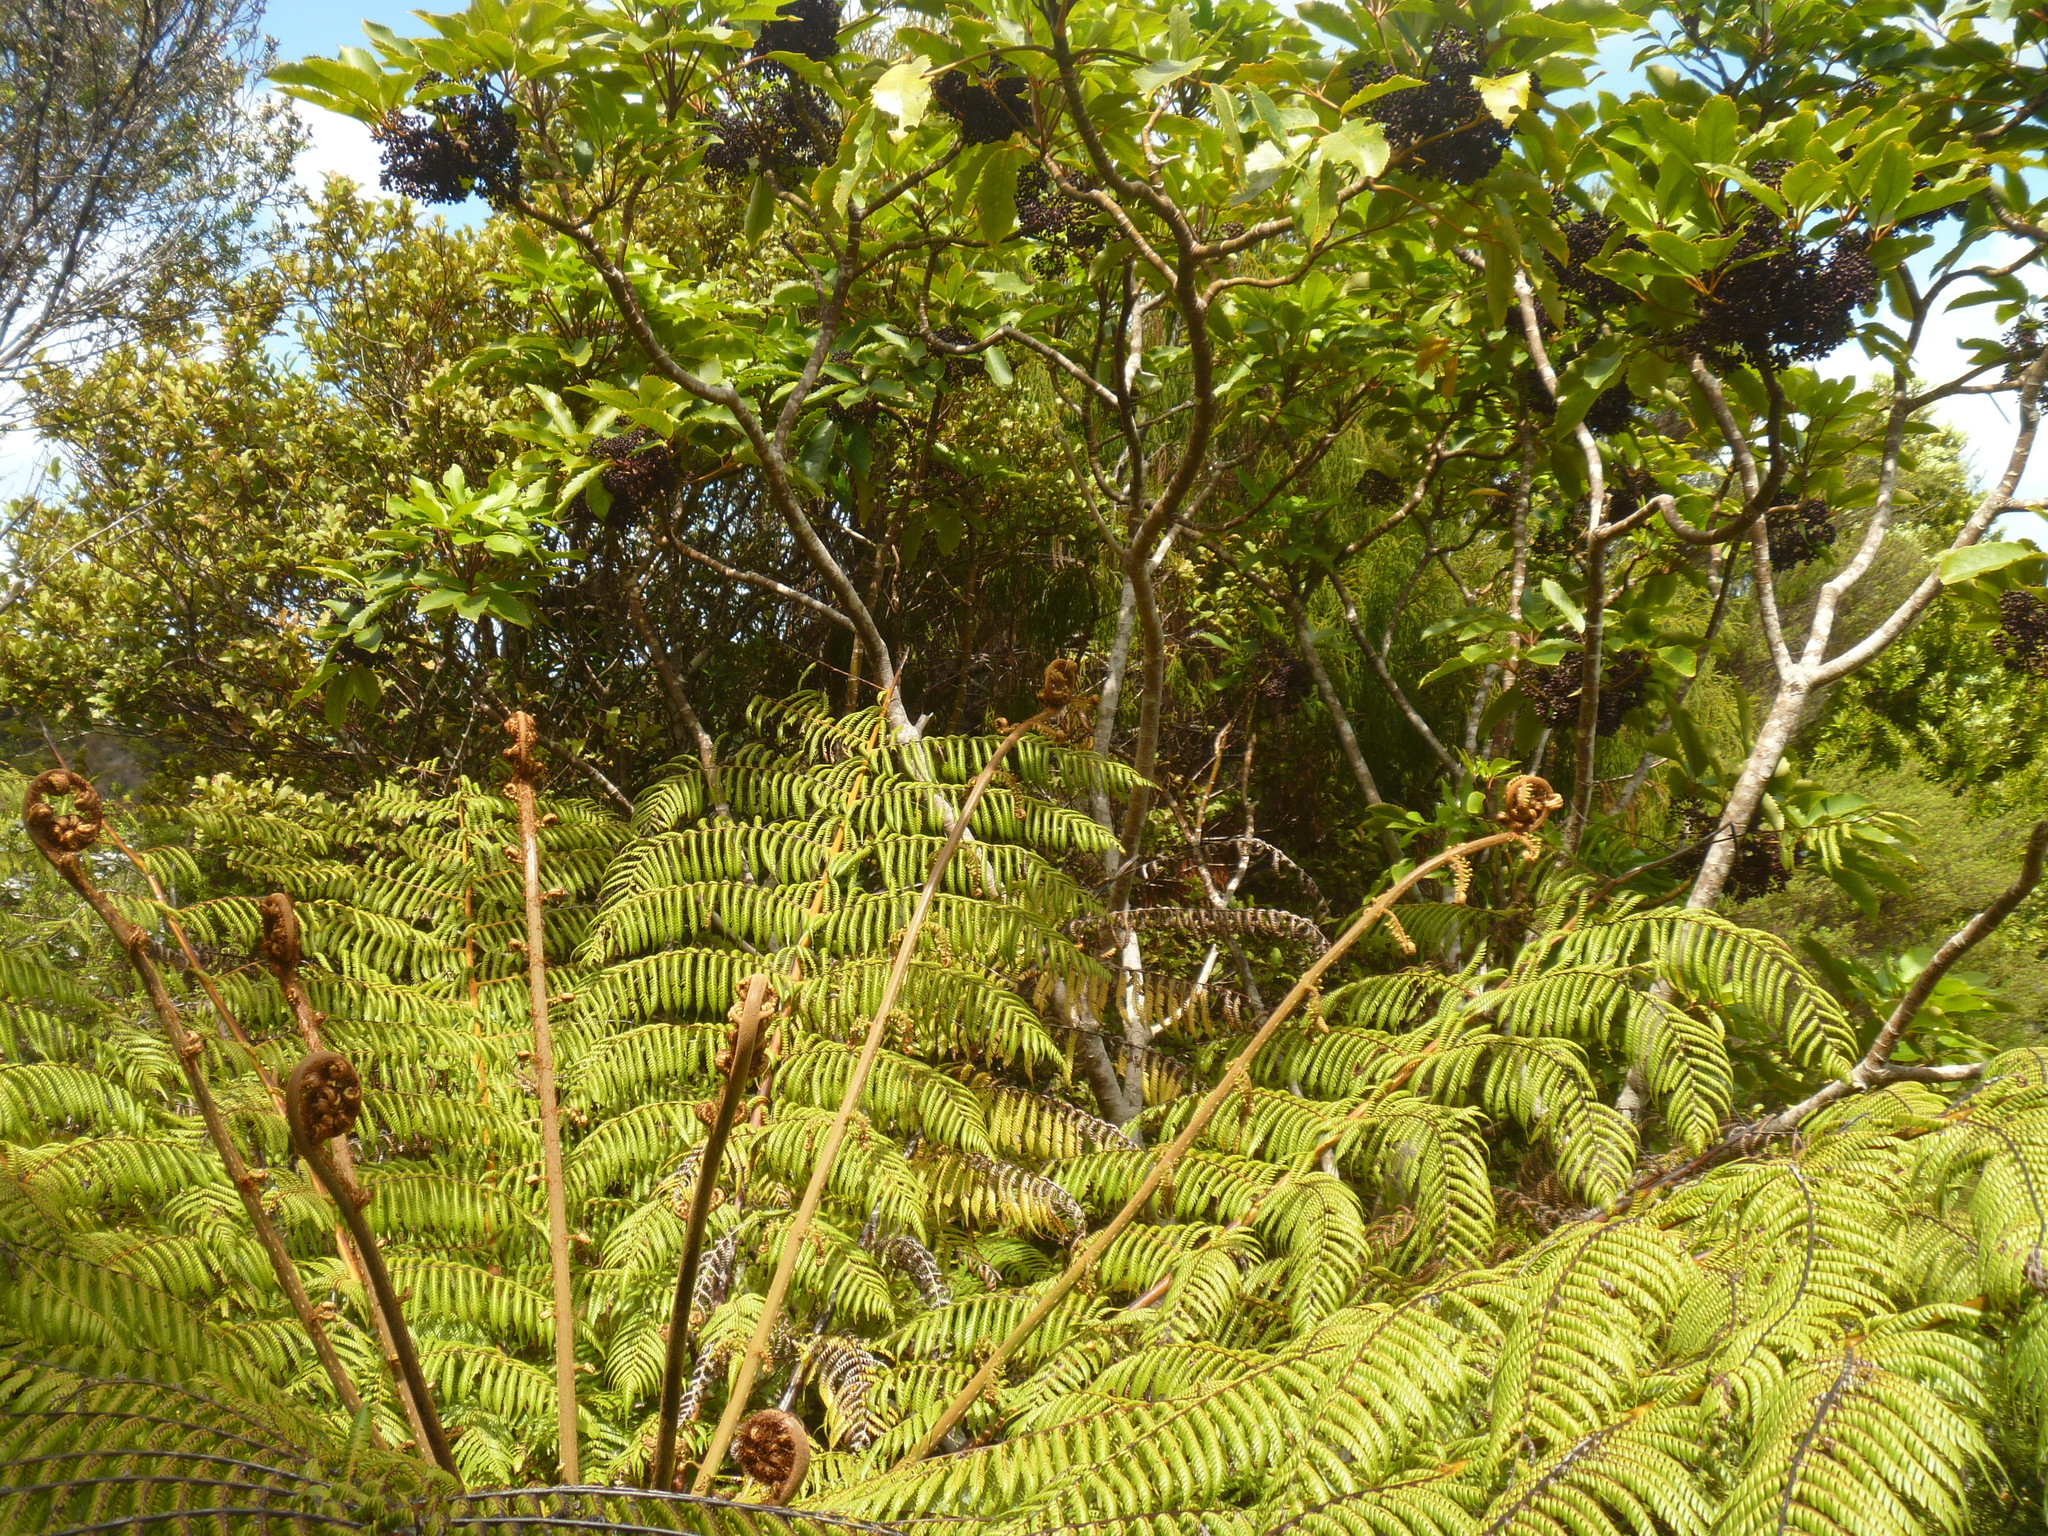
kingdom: Plantae
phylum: Tracheophyta
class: Magnoliopsida
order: Apiales
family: Araliaceae
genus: Neopanax
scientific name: Neopanax arboreus
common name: Five-fingers
